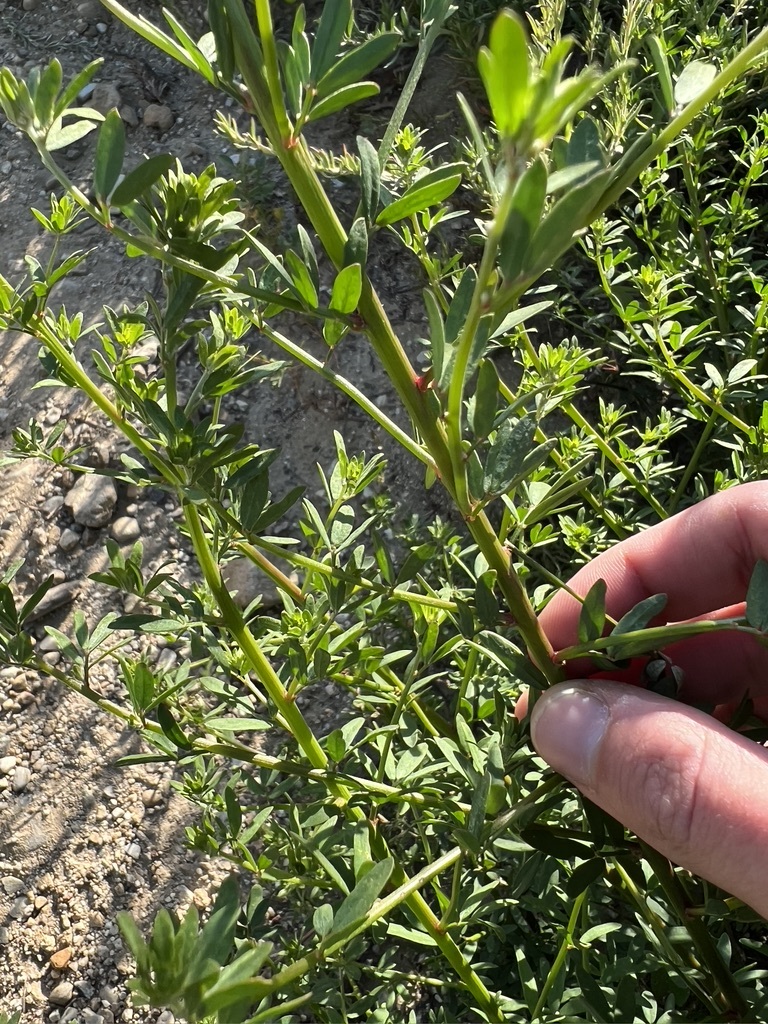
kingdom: Plantae
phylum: Tracheophyta
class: Magnoliopsida
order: Fabales
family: Fabaceae
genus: Acmispon
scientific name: Acmispon glaber
